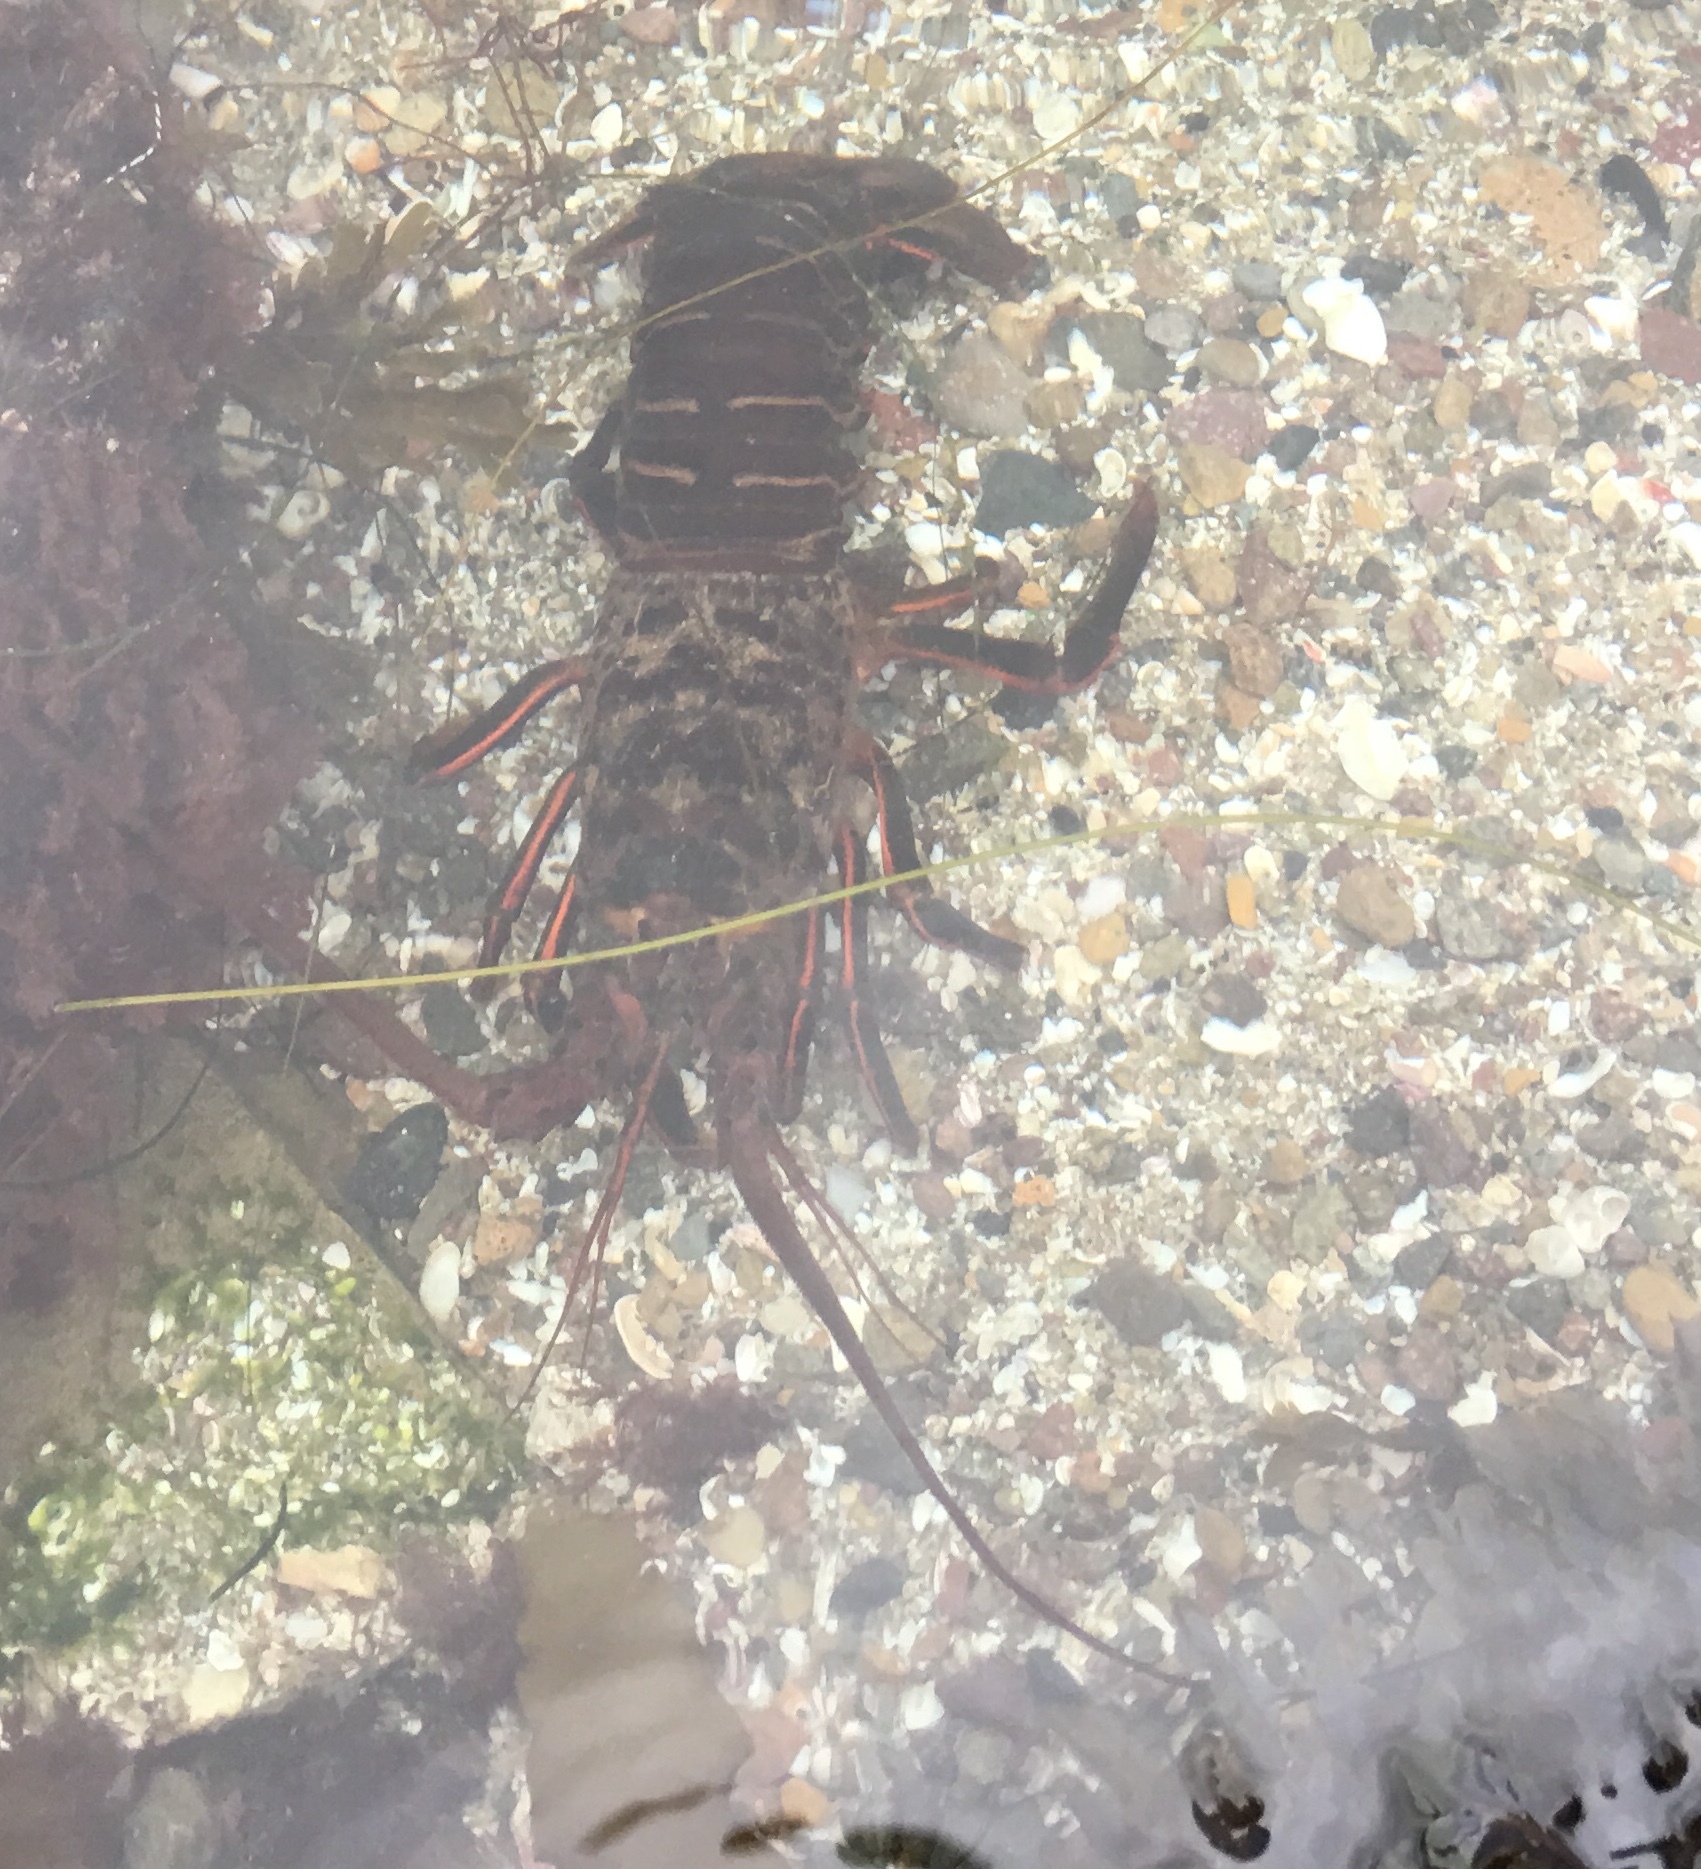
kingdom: Animalia
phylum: Arthropoda
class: Malacostraca
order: Decapoda
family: Palinuridae
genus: Panulirus
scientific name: Panulirus interruptus
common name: California spiny lobster
